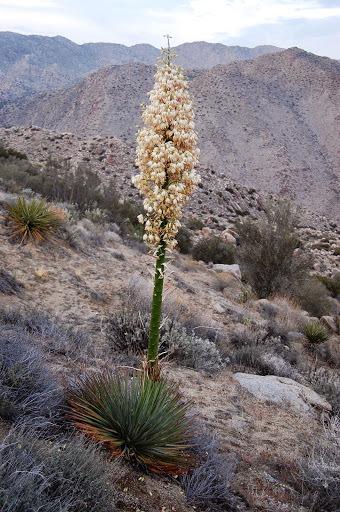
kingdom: Plantae
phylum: Tracheophyta
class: Liliopsida
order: Asparagales
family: Asparagaceae
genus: Hesperoyucca
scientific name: Hesperoyucca whipplei
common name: Our lord's-candle
